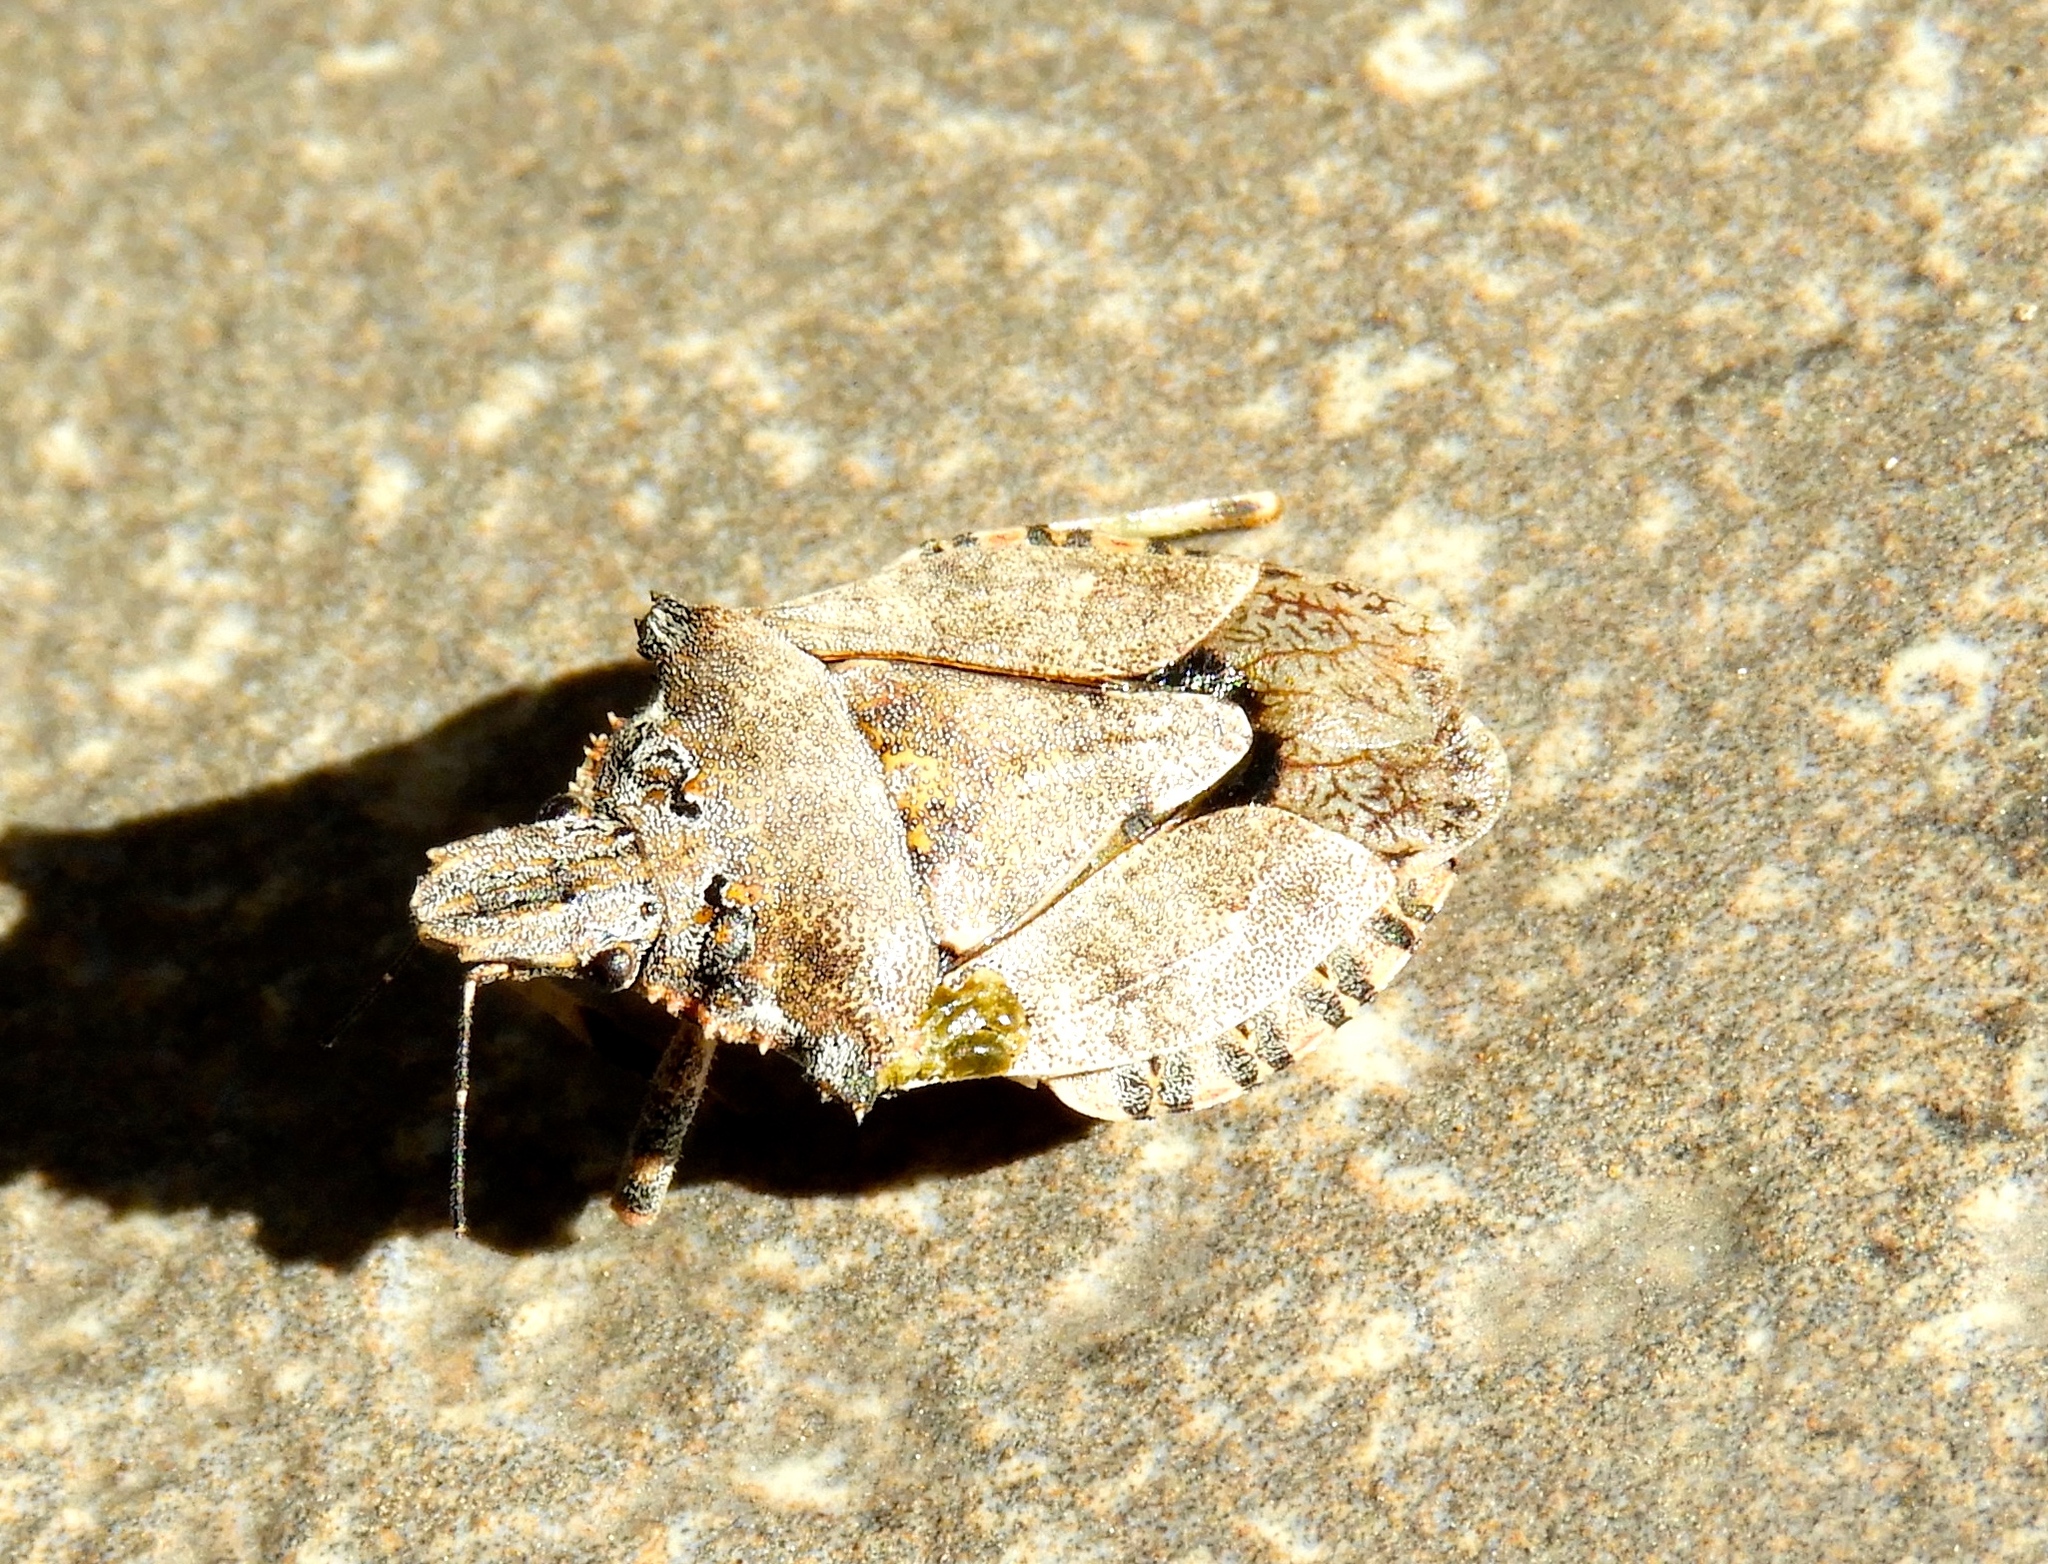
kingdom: Animalia
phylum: Arthropoda
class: Insecta
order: Hemiptera
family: Pentatomidae
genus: Brochymena
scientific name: Brochymena
